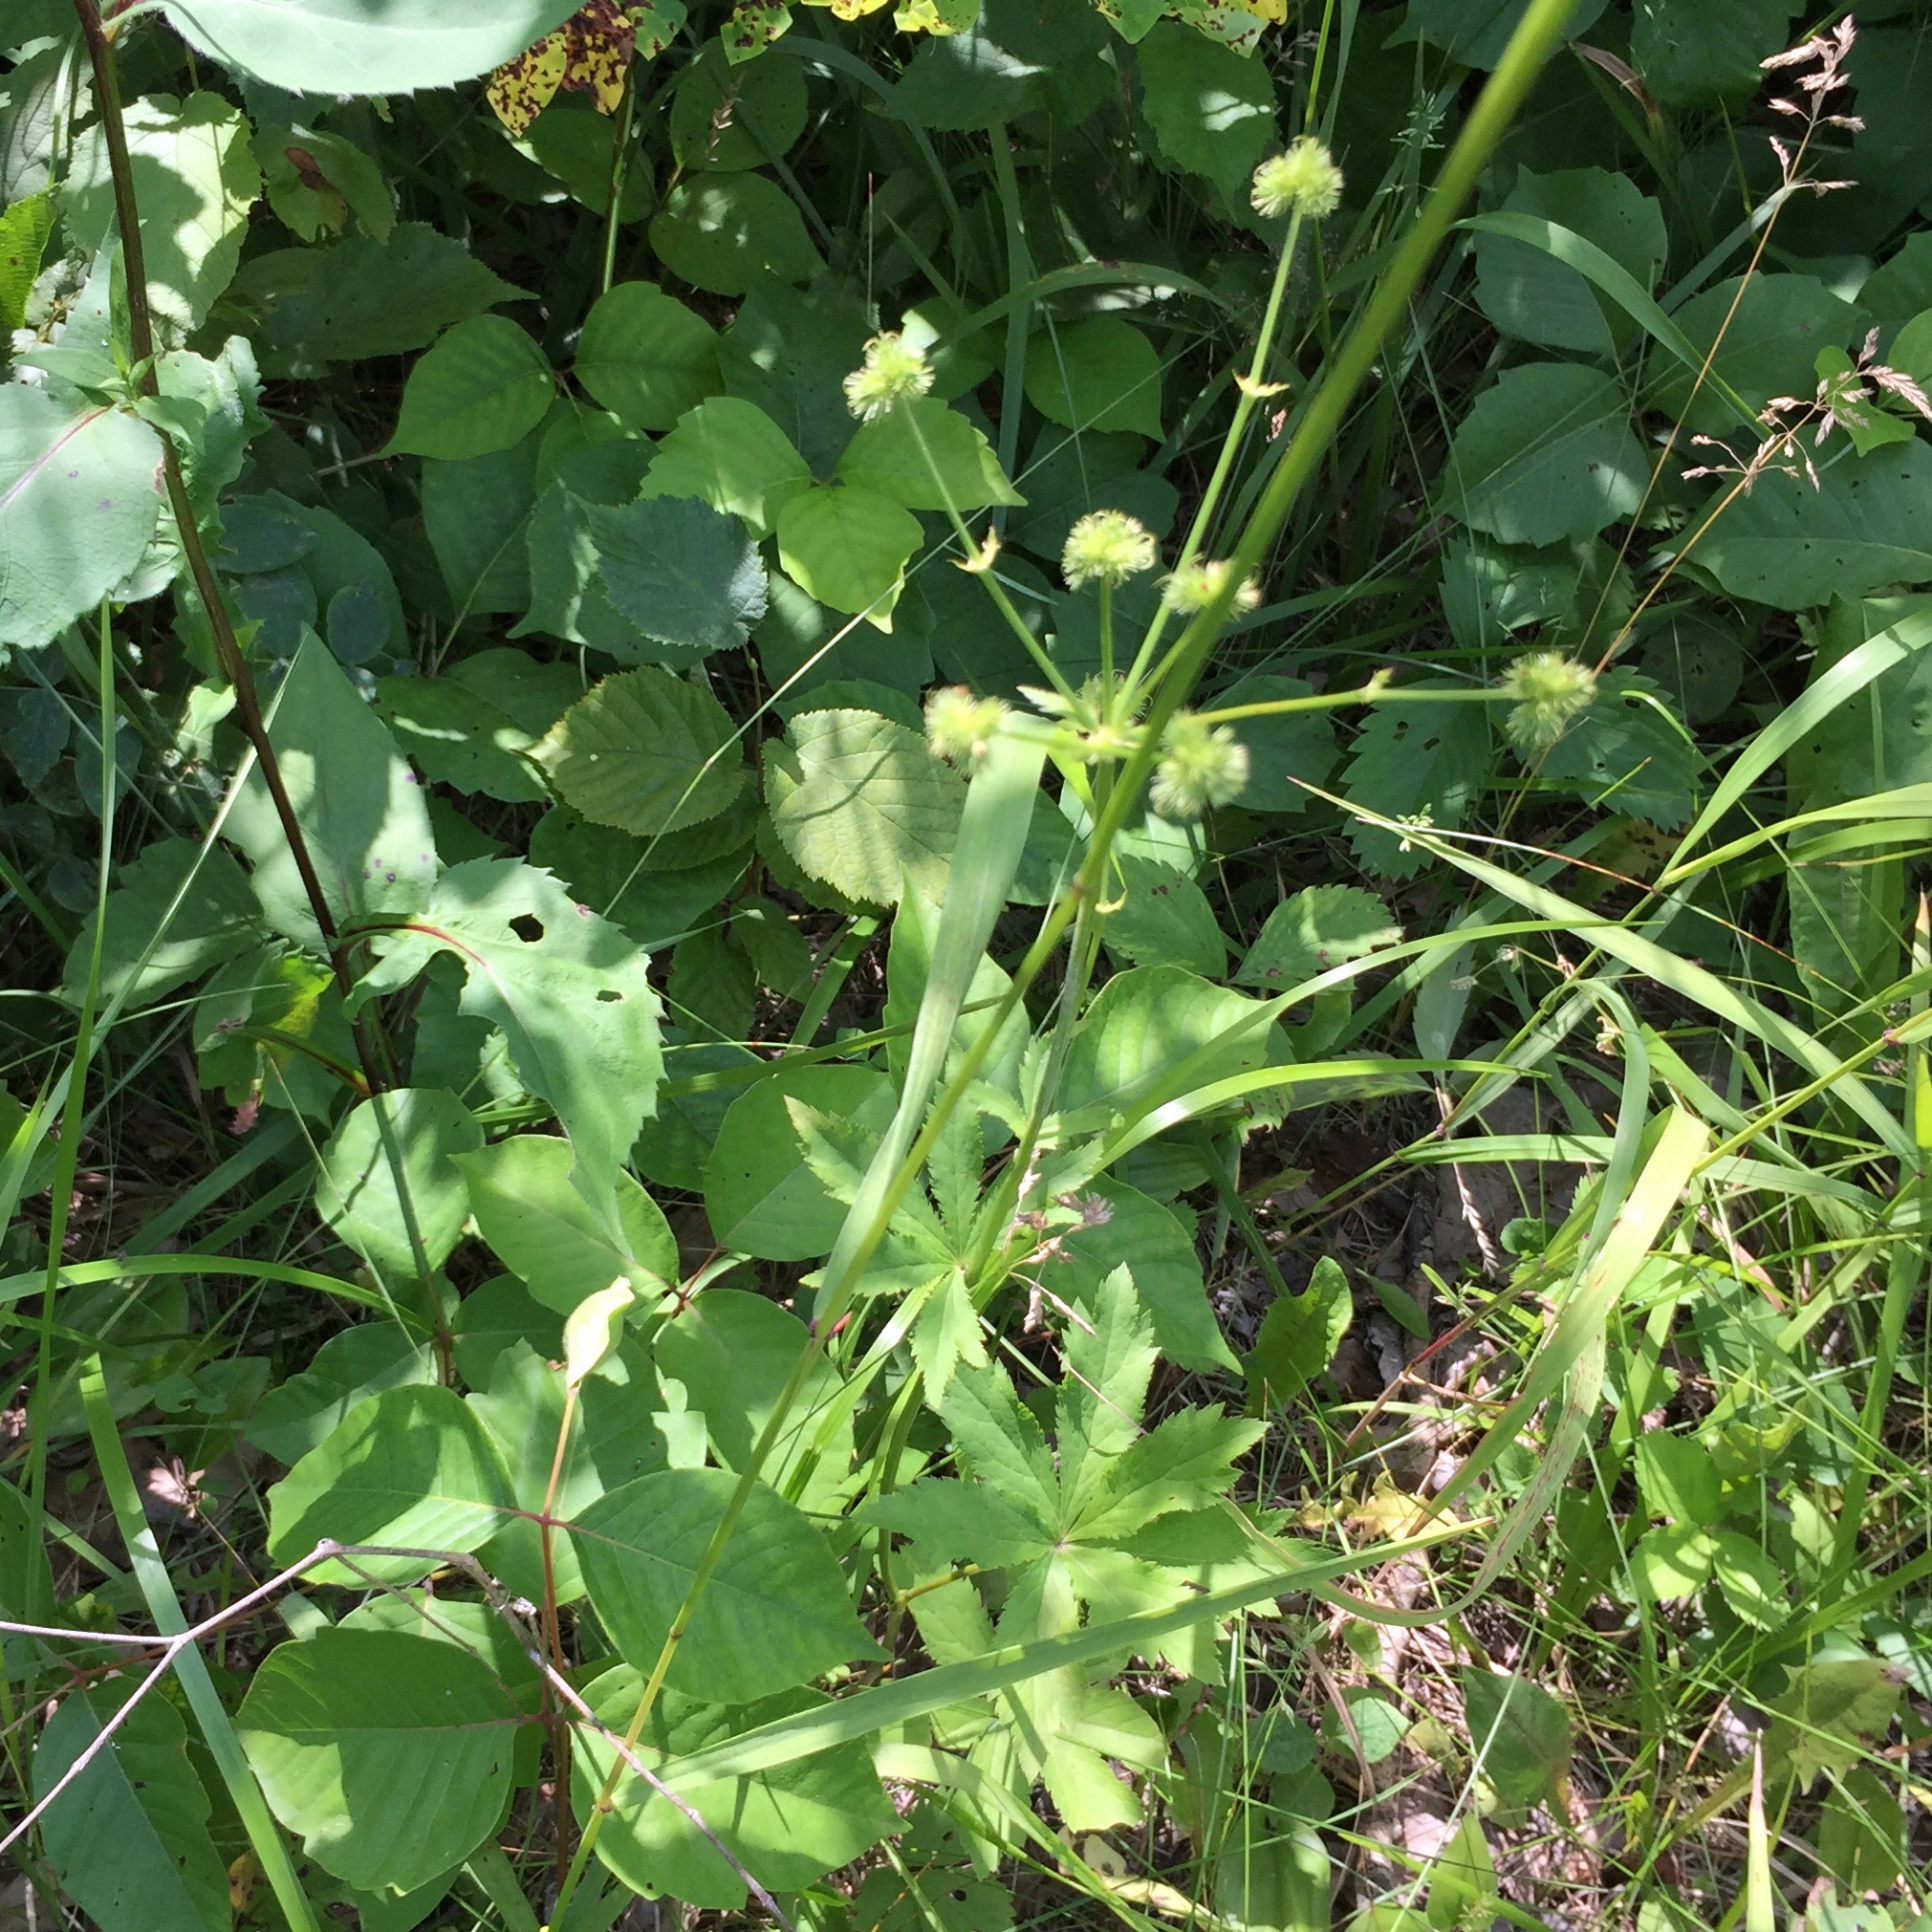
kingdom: Plantae
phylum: Tracheophyta
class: Magnoliopsida
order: Apiales
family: Apiaceae
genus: Sanicula
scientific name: Sanicula marilandica
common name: Black snakeroot
